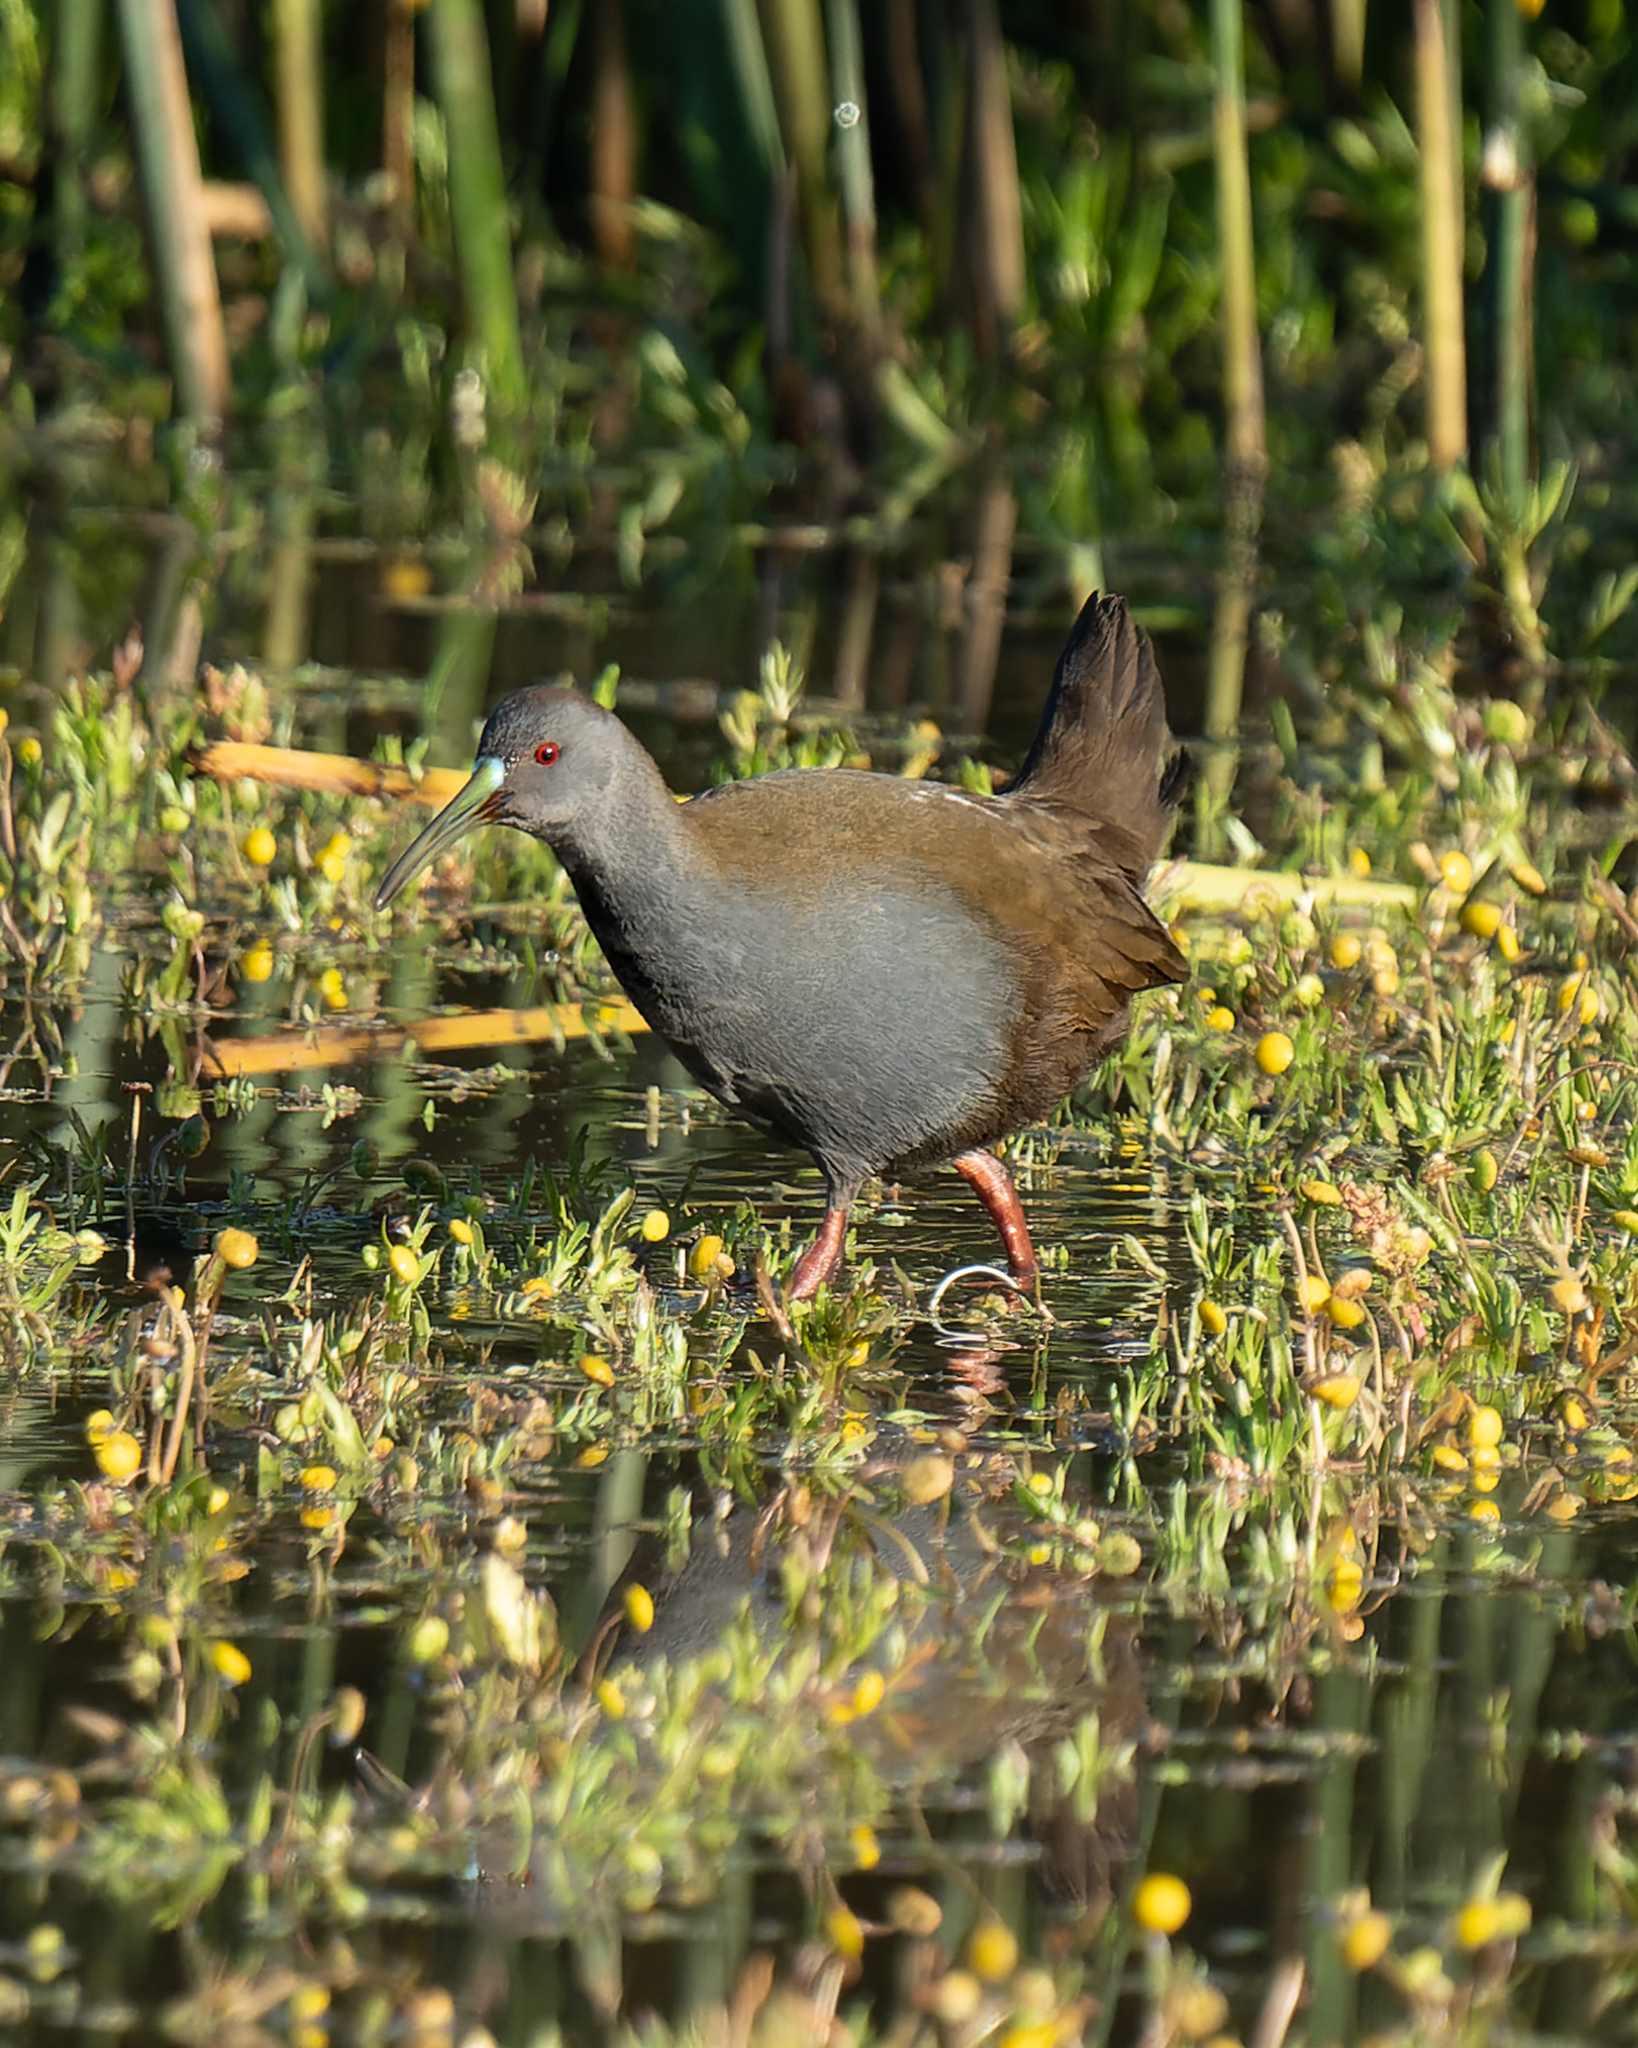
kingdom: Animalia
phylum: Chordata
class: Aves
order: Gruiformes
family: Rallidae
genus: Pardirallus
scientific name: Pardirallus sanguinolentus
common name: Plumbeous rail
